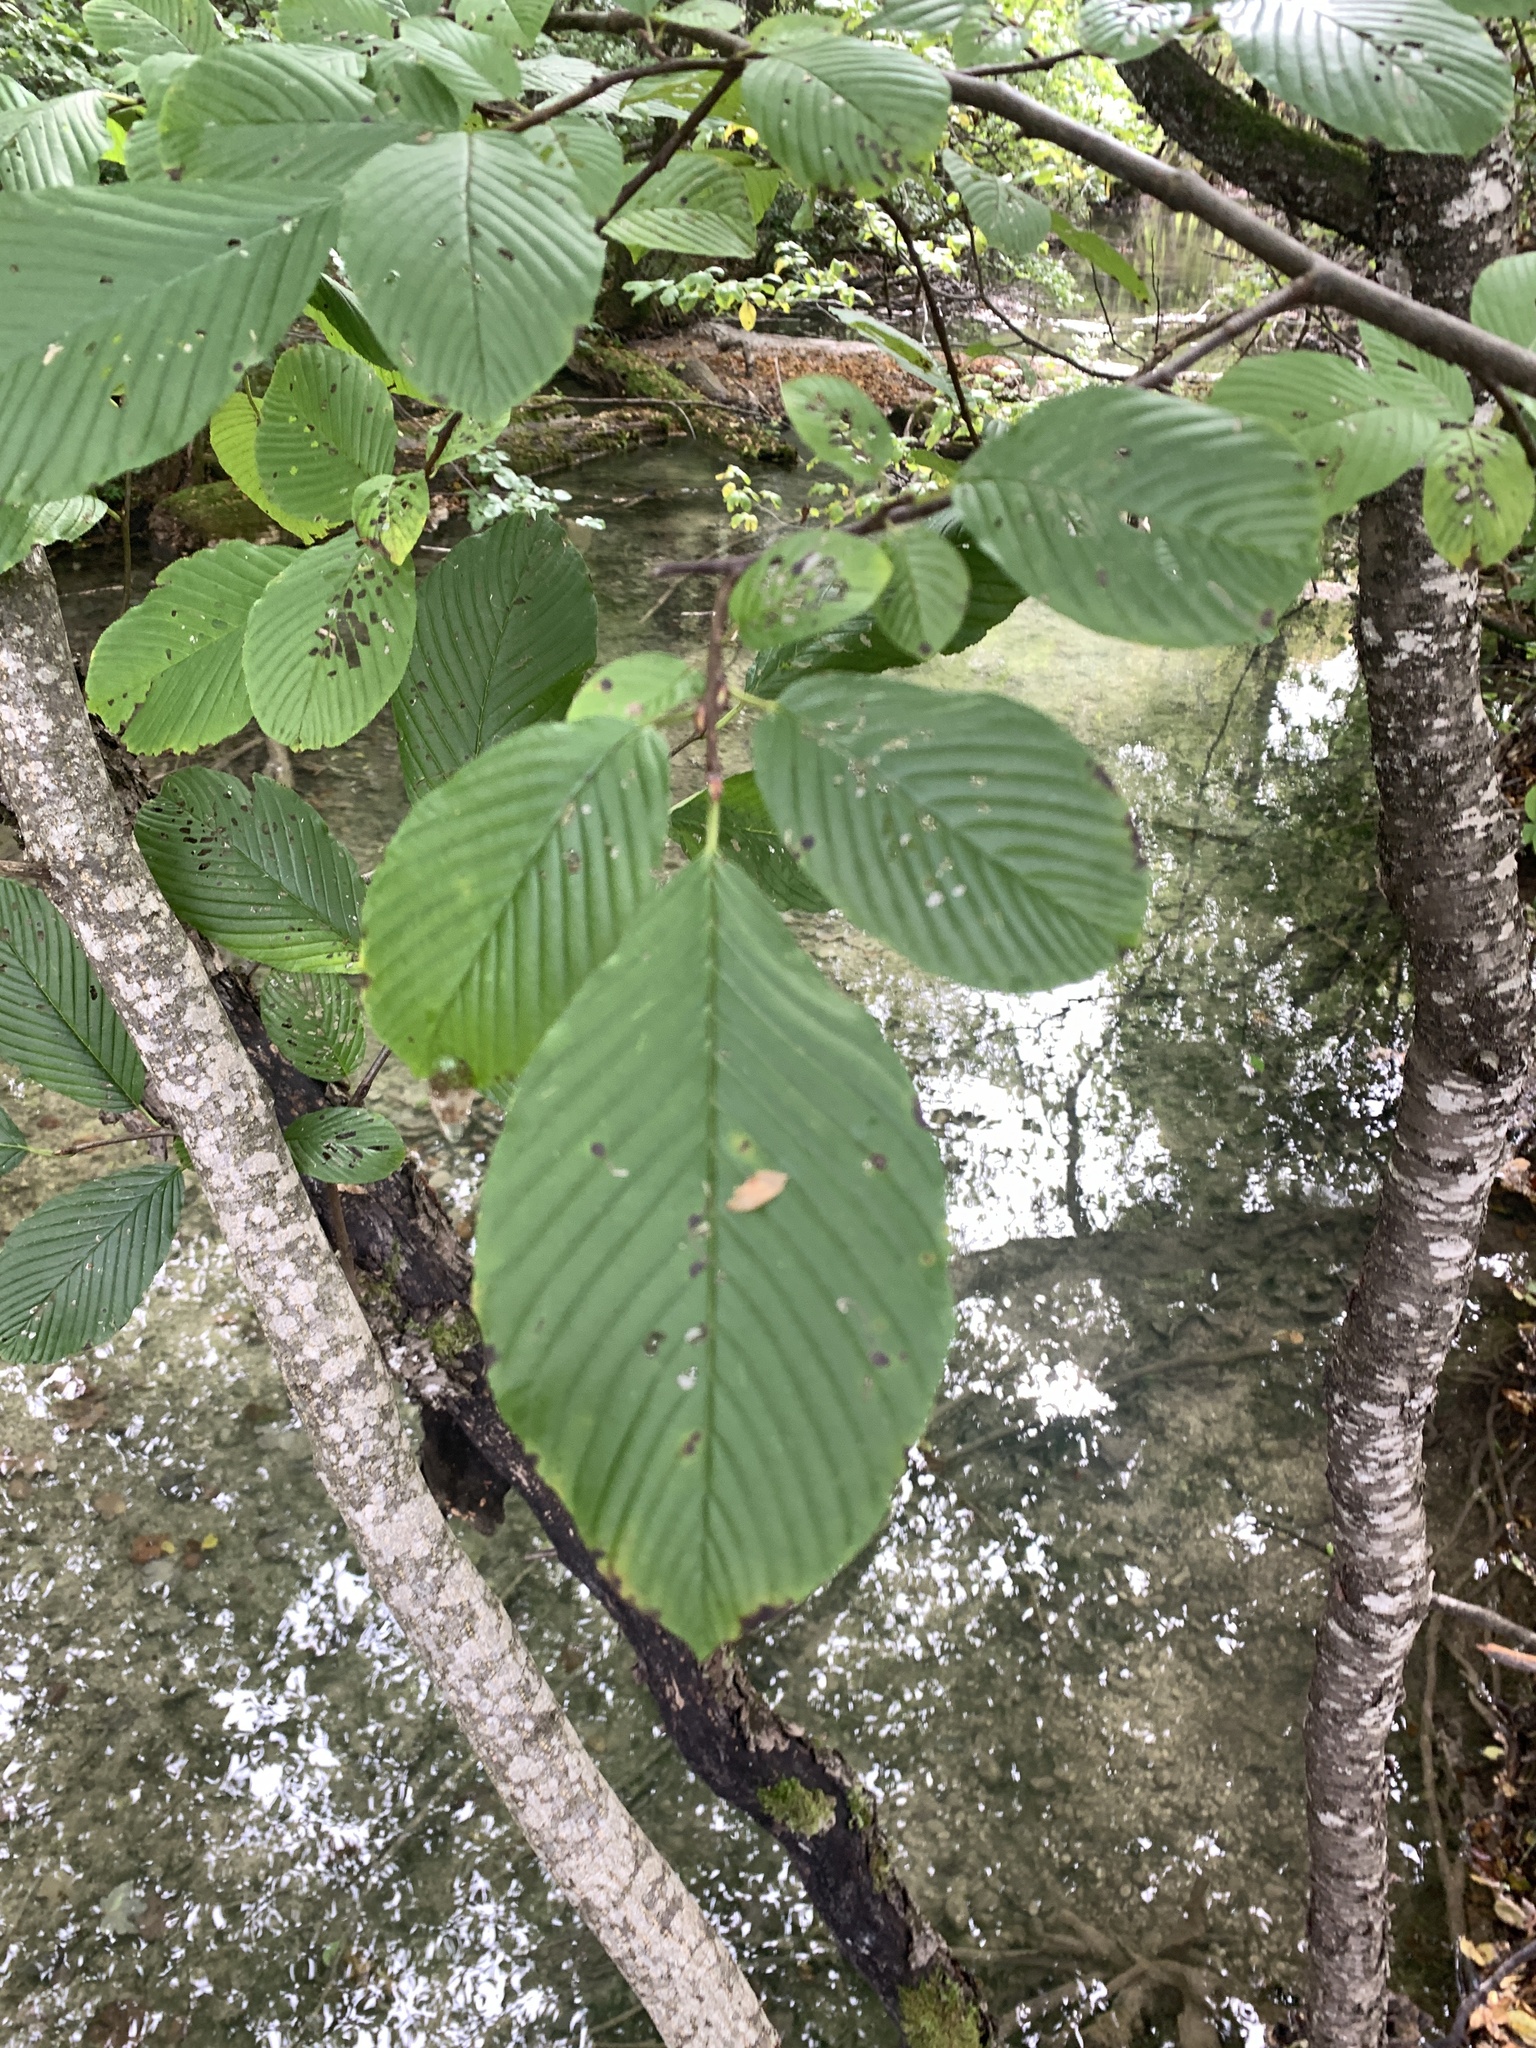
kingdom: Plantae
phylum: Tracheophyta
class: Magnoliopsida
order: Rosales
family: Rhamnaceae
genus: Atadinus
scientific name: Atadinus fallax
